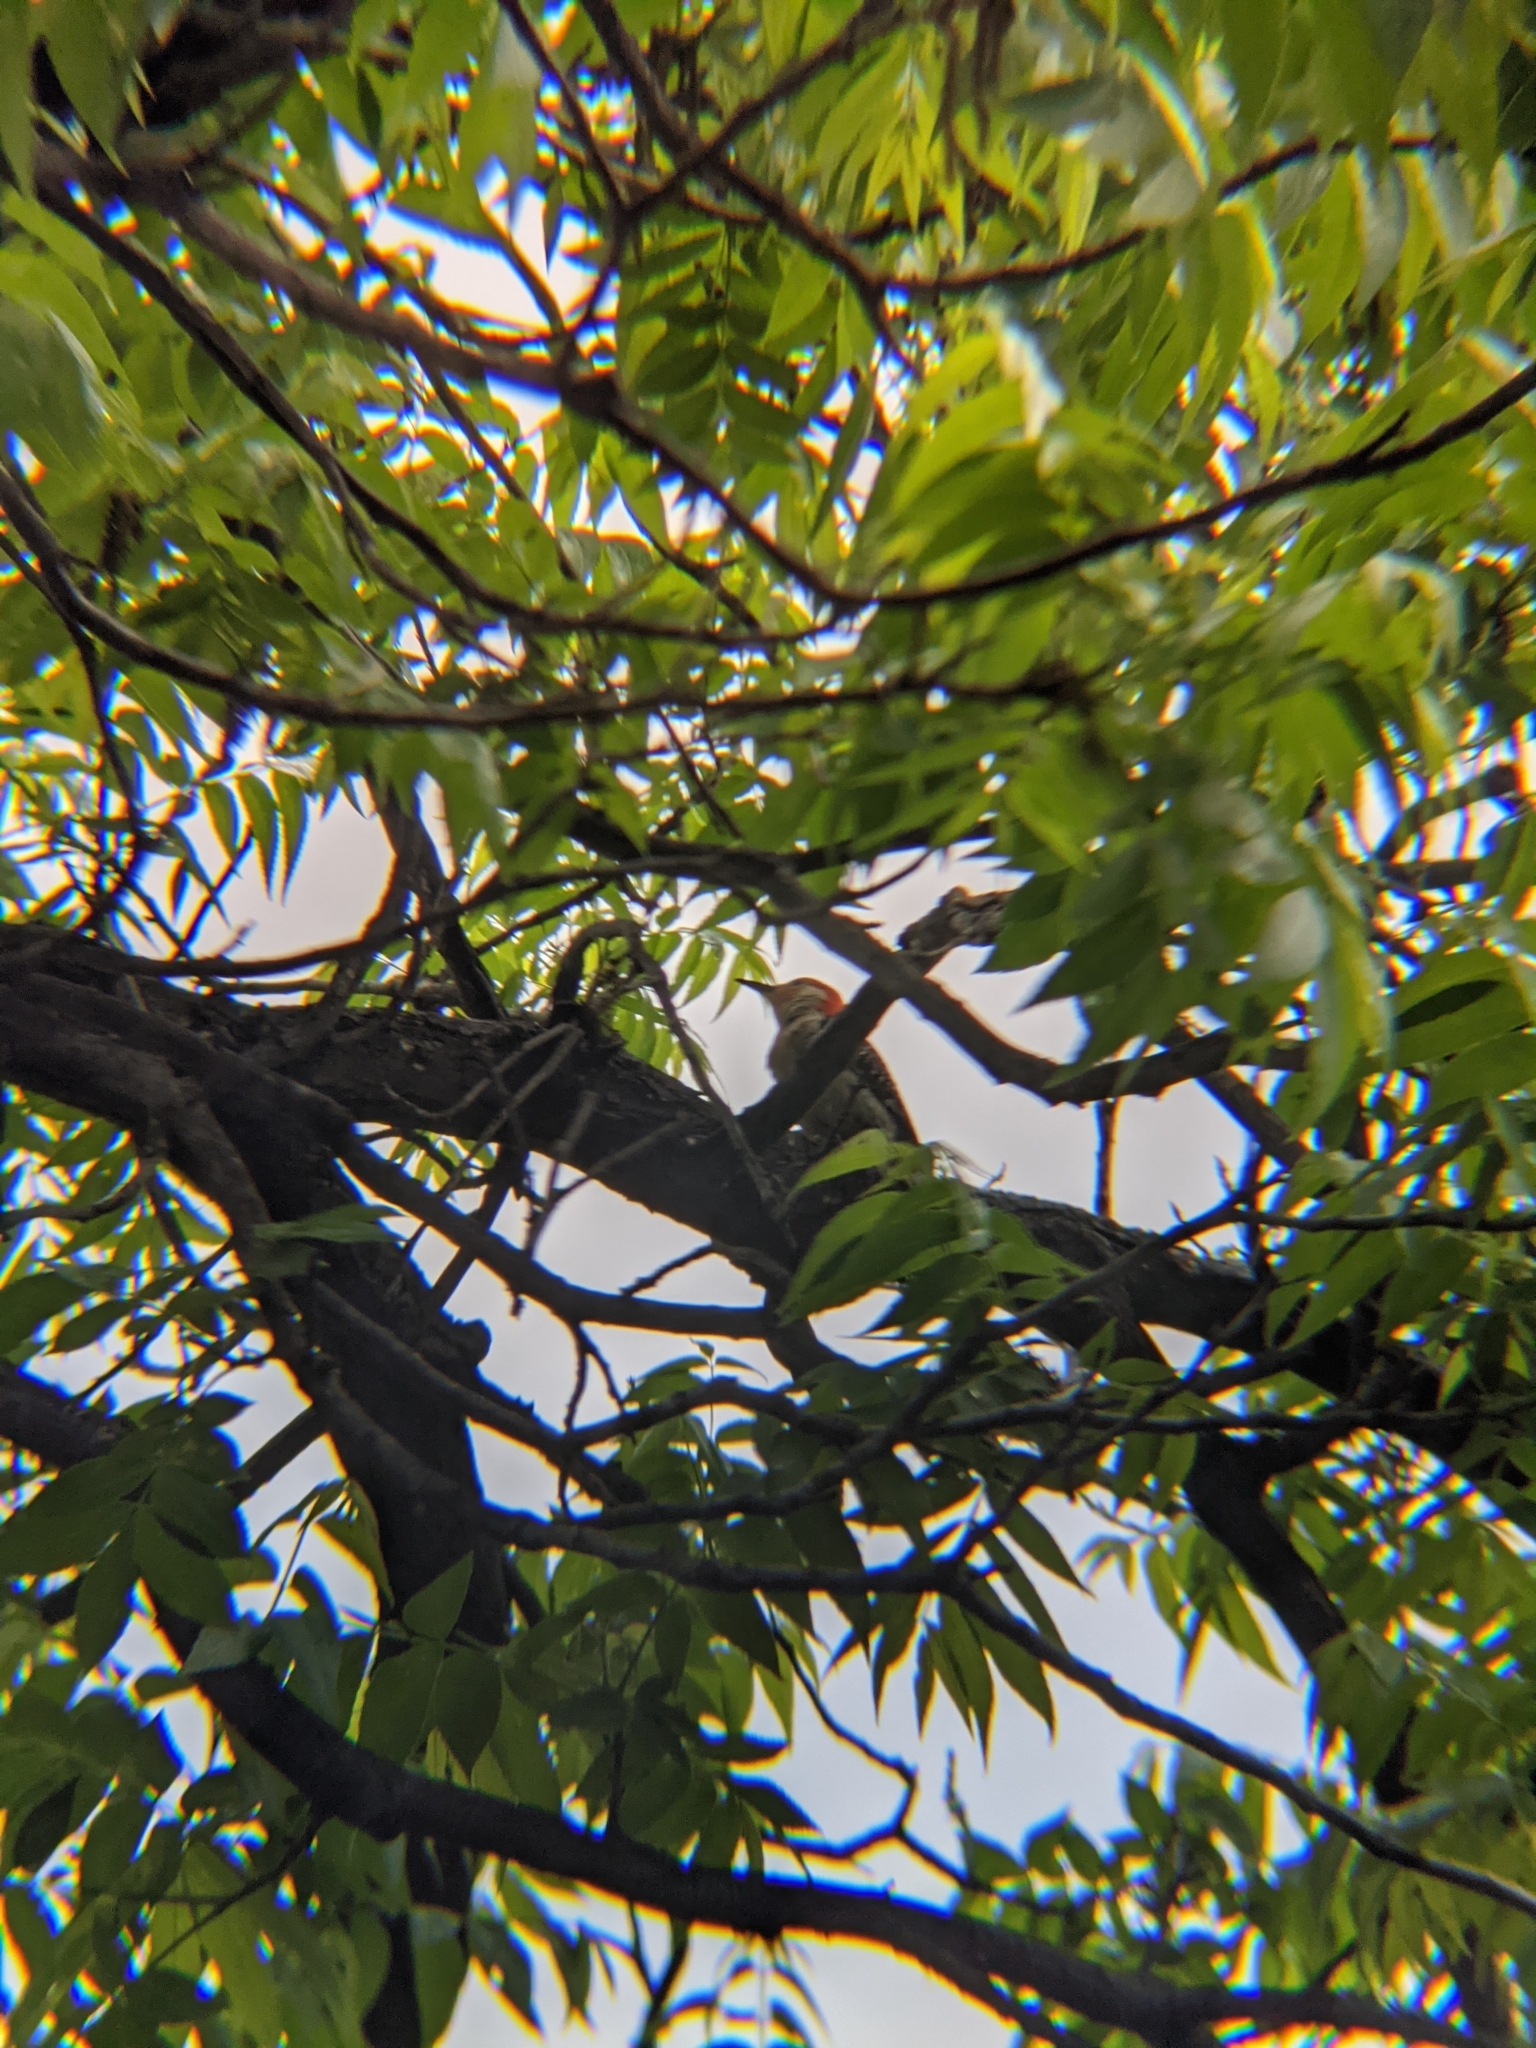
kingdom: Animalia
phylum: Chordata
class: Aves
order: Piciformes
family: Picidae
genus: Melanerpes
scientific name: Melanerpes carolinus
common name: Red-bellied woodpecker
